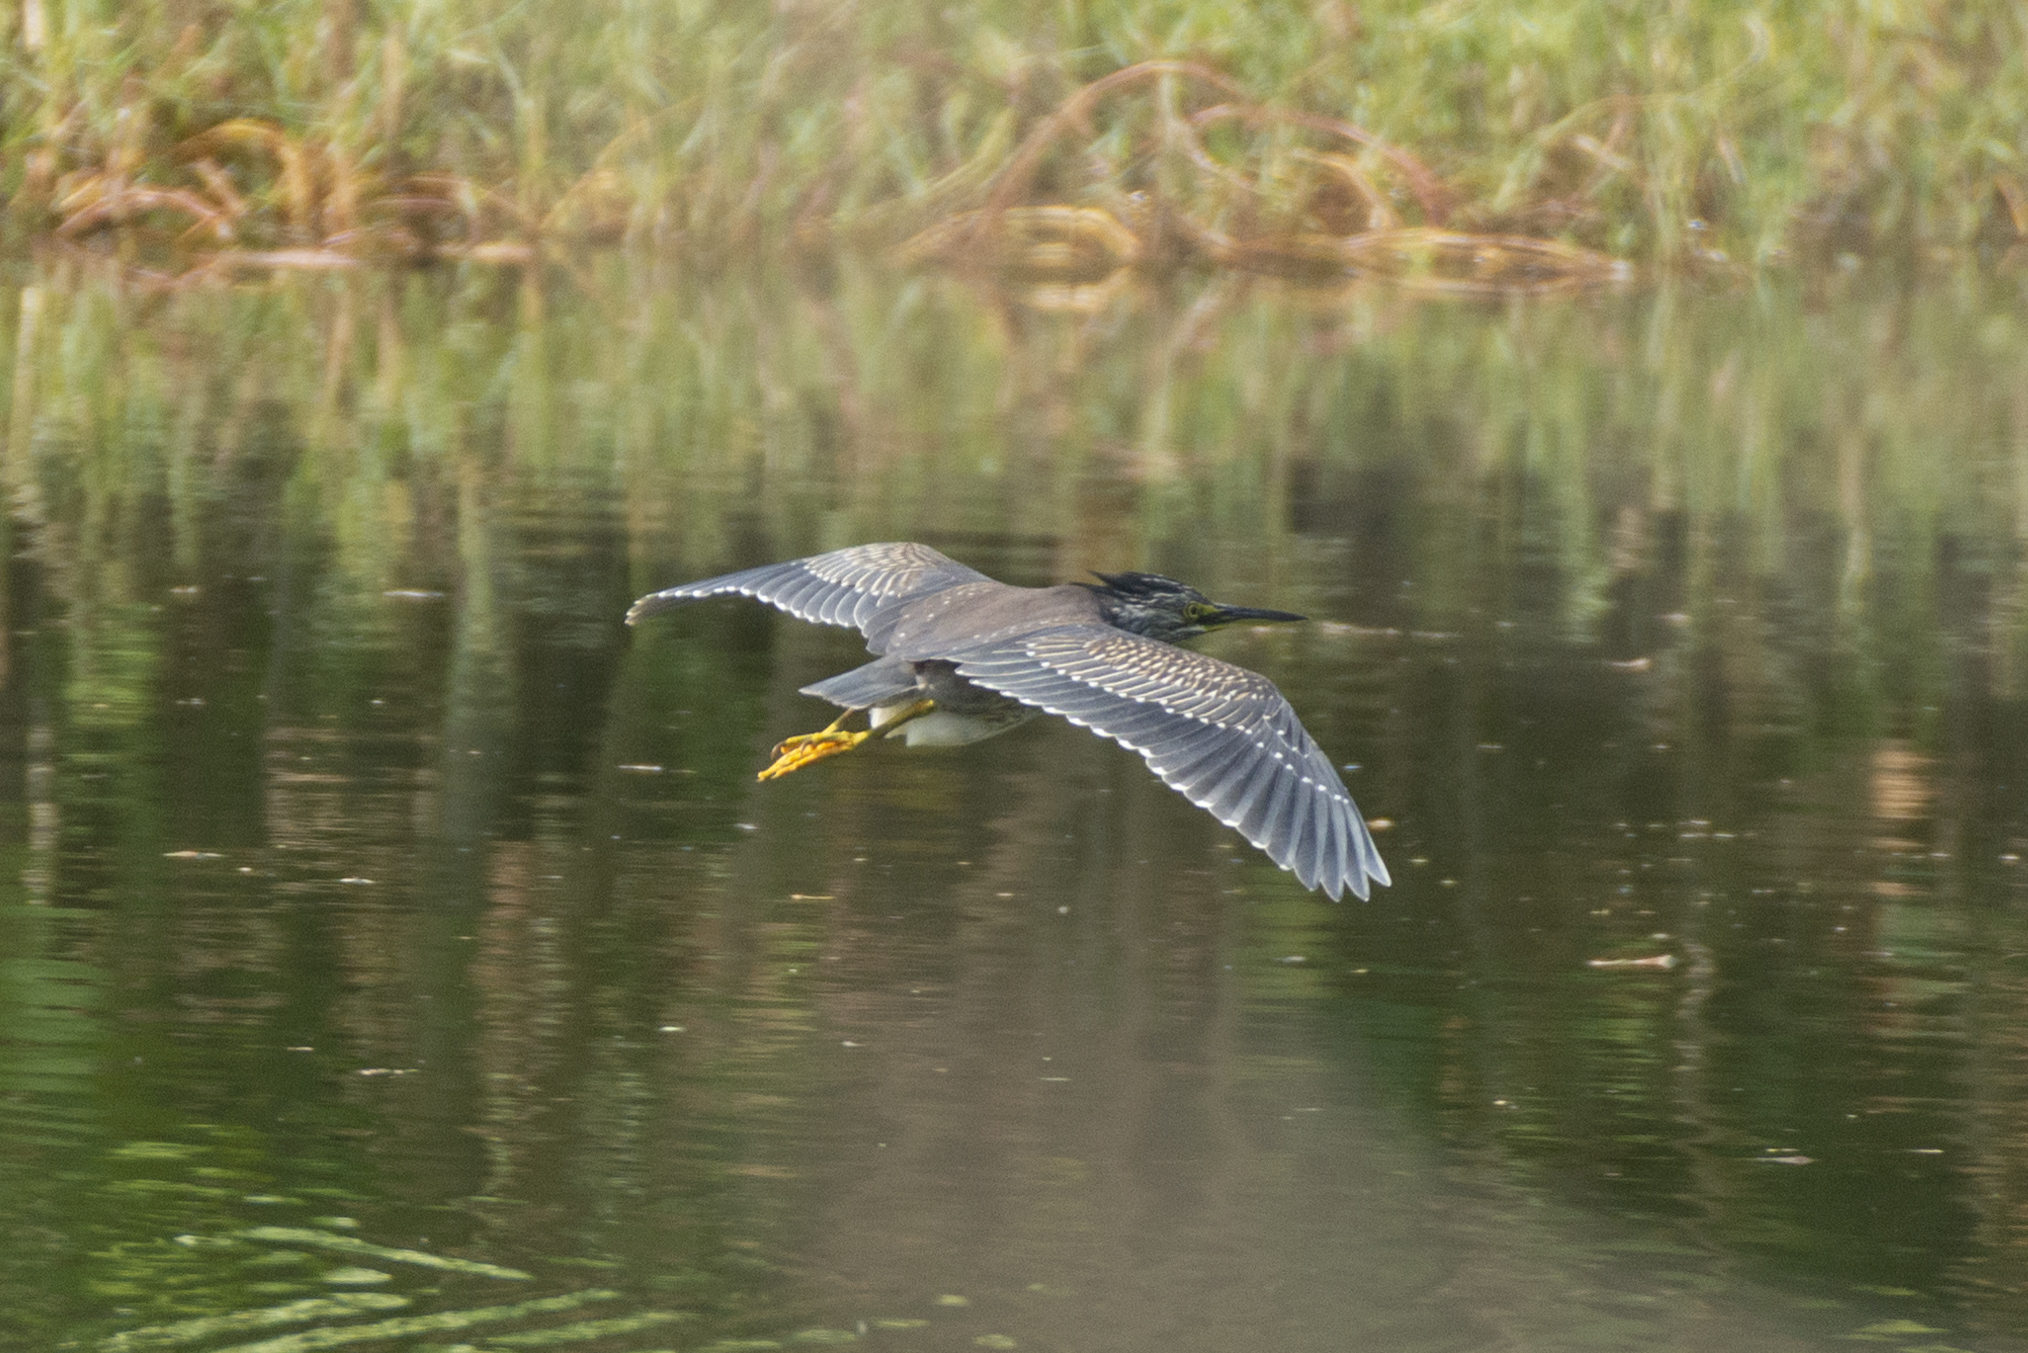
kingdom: Animalia
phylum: Chordata
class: Aves
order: Pelecaniformes
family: Ardeidae
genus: Butorides
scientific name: Butorides striata
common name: Striated heron
